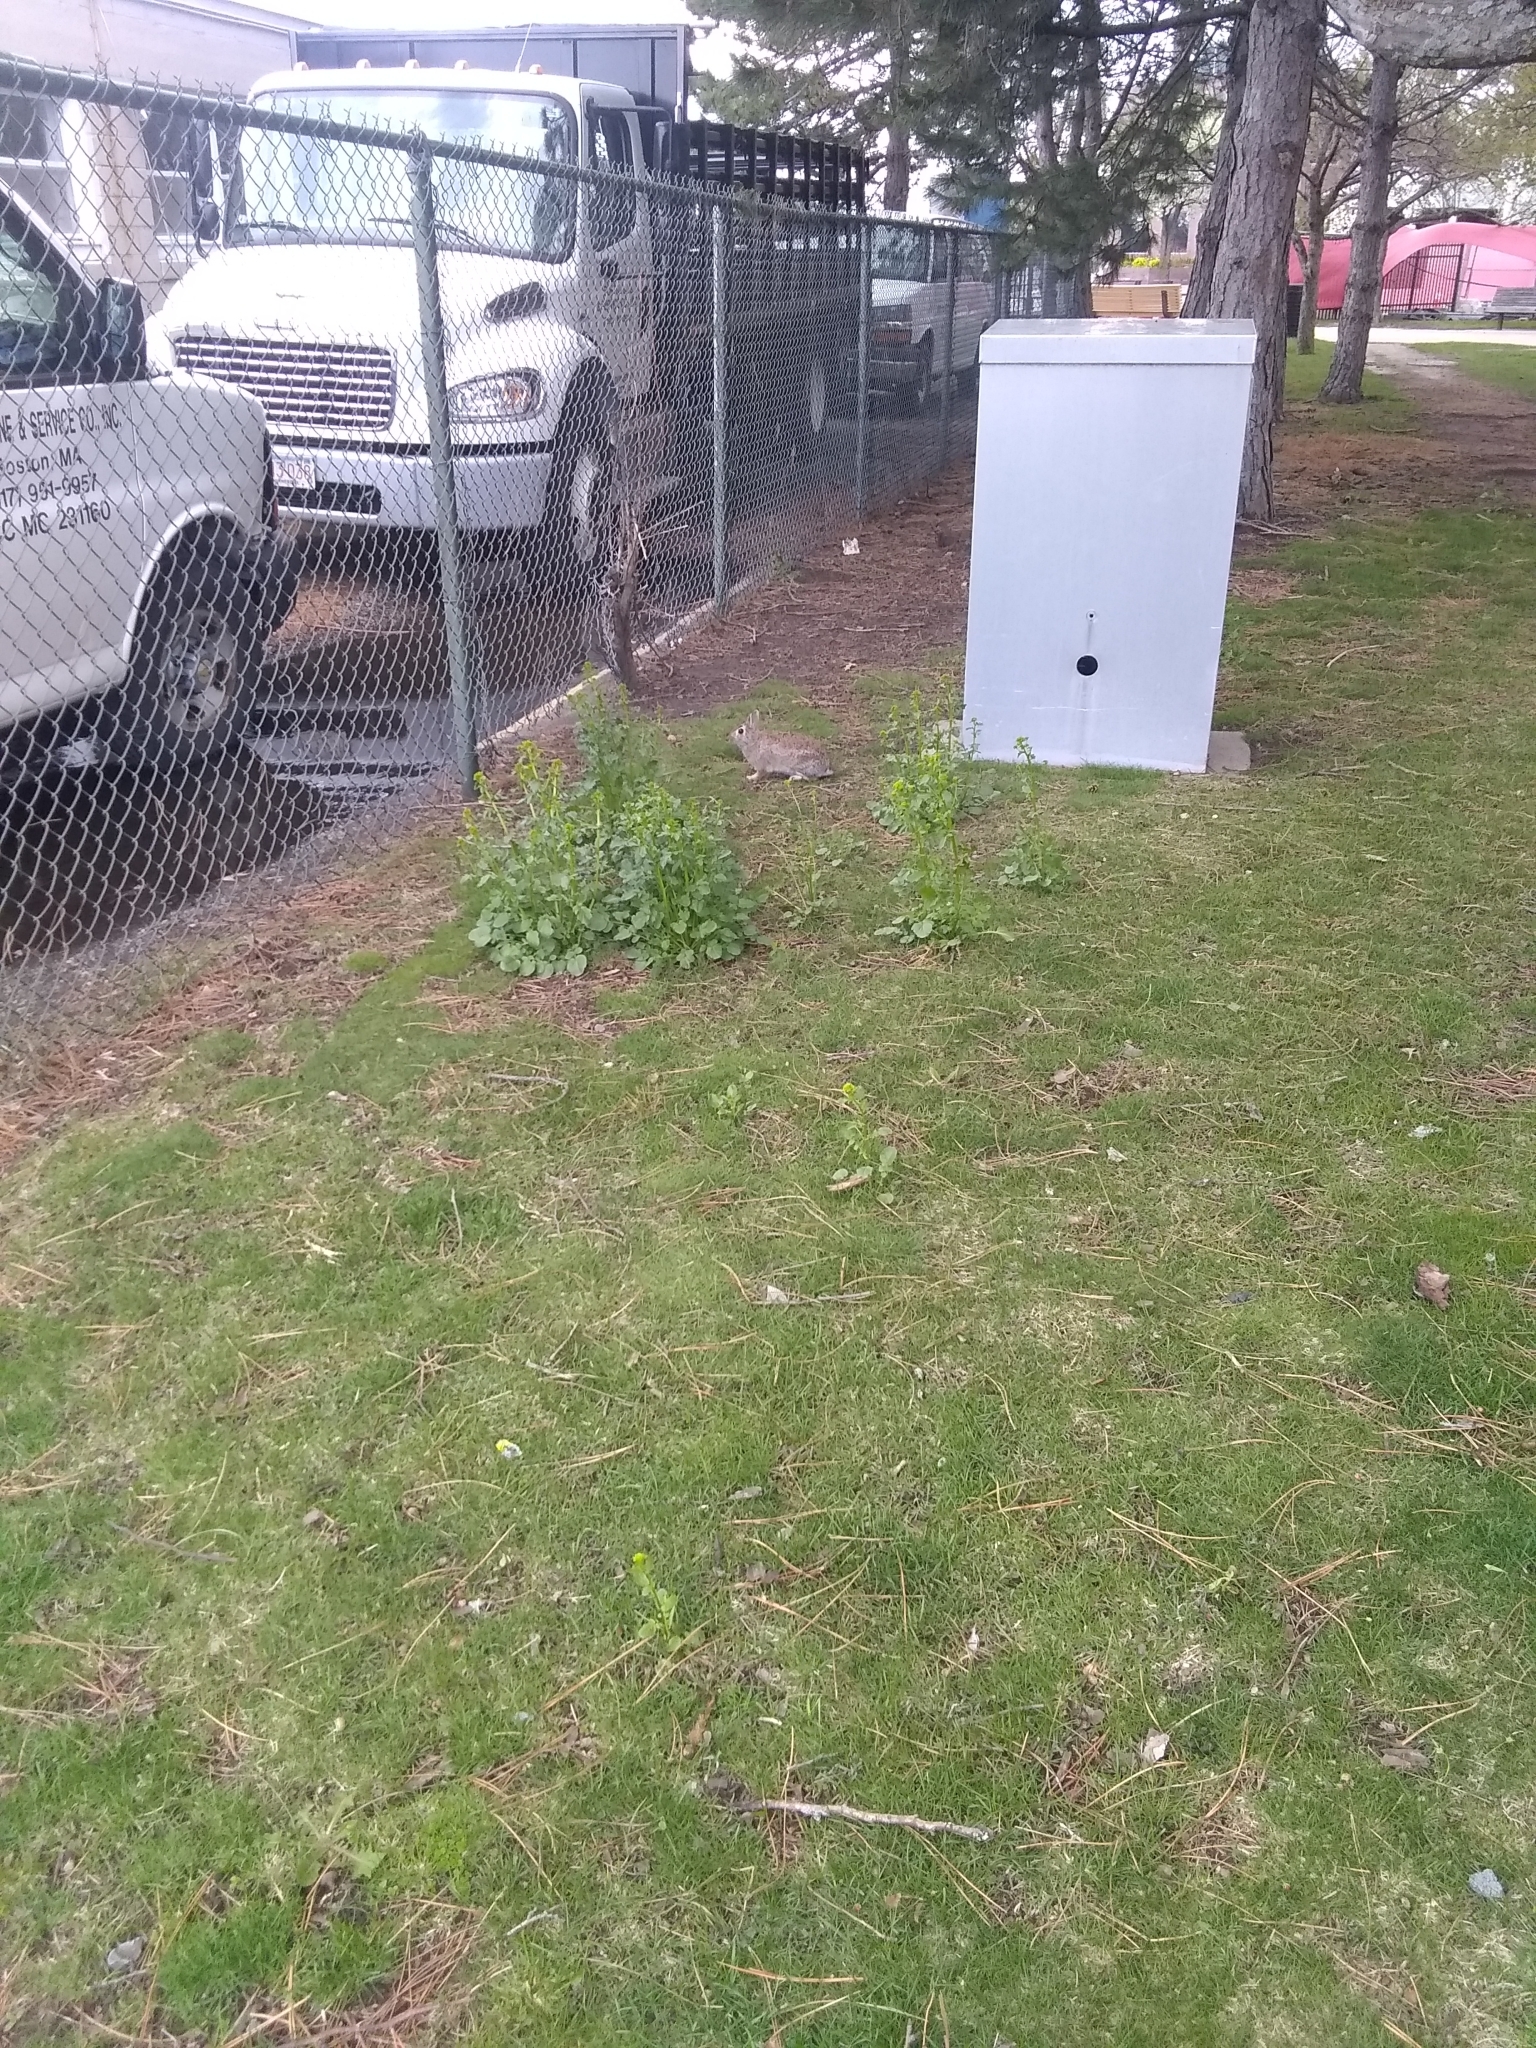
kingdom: Animalia
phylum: Chordata
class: Mammalia
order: Lagomorpha
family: Leporidae
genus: Sylvilagus
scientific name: Sylvilagus floridanus
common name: Eastern cottontail
